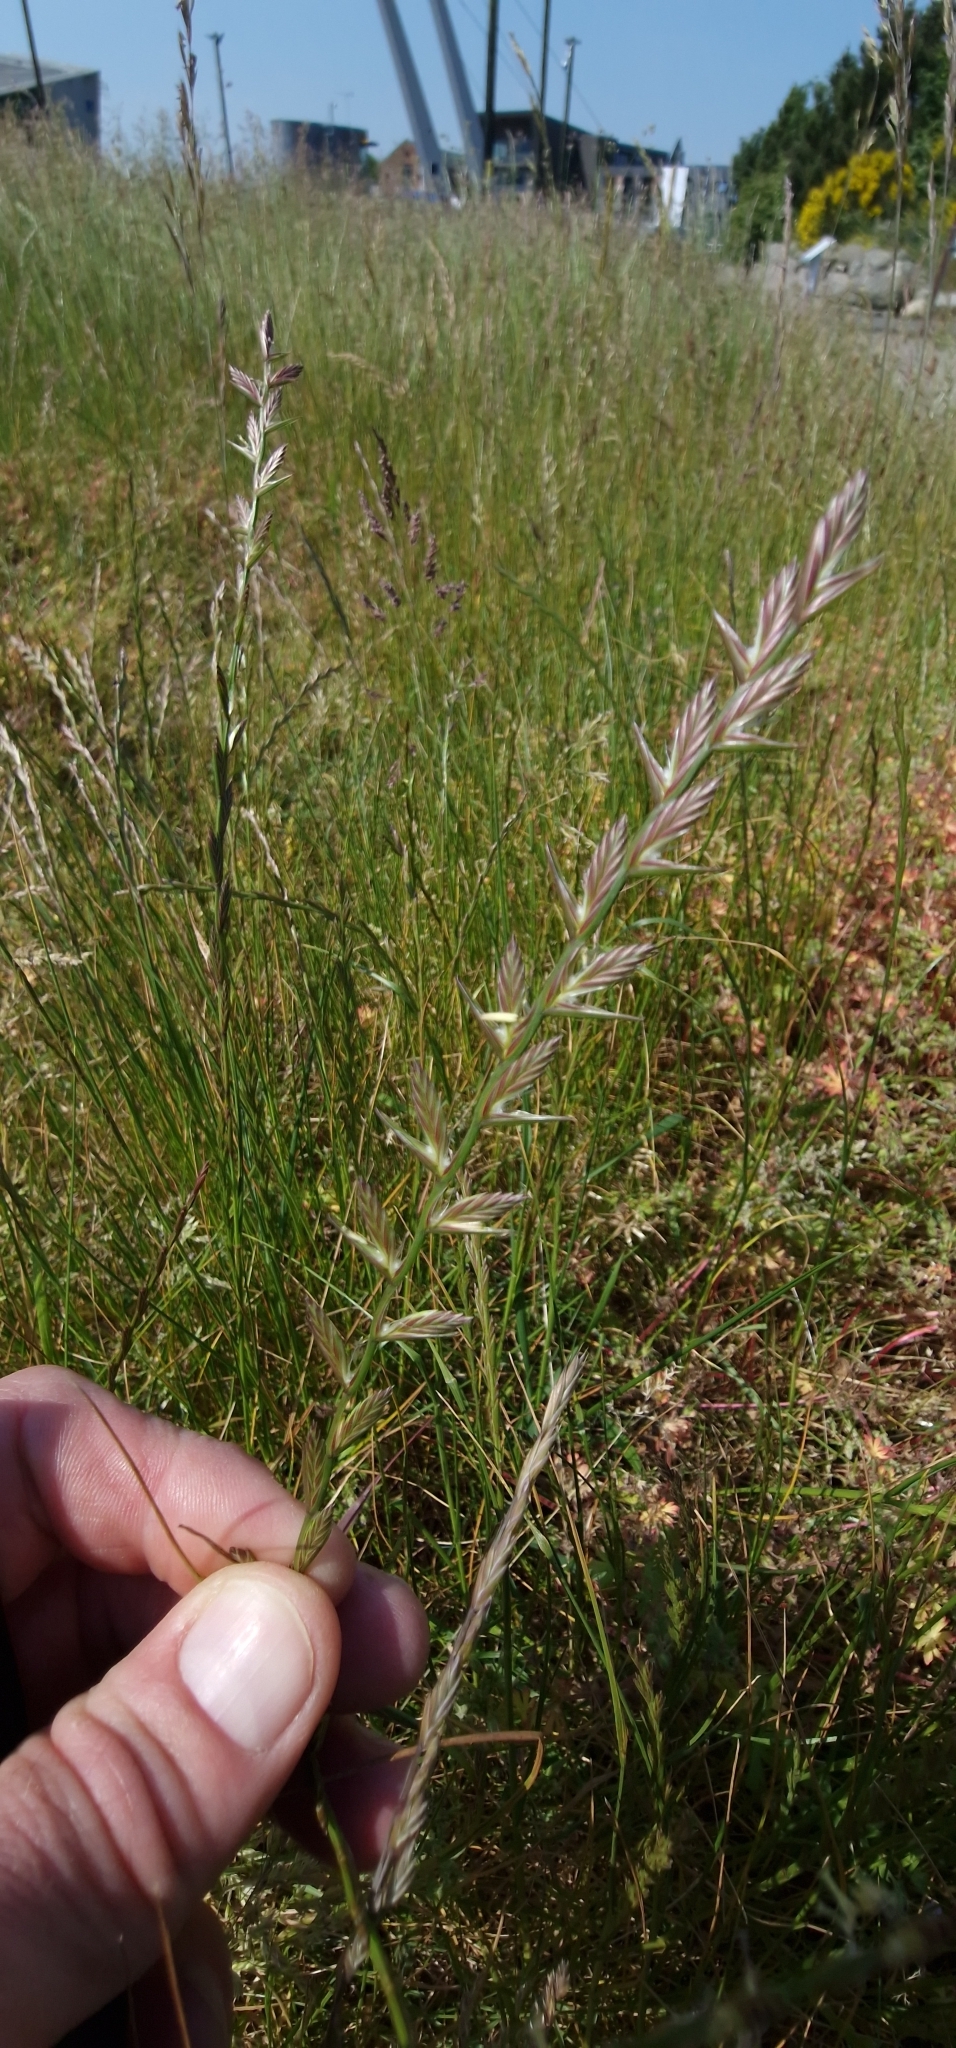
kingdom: Plantae
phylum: Tracheophyta
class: Liliopsida
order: Poales
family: Poaceae
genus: Lolium
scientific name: Lolium perenne
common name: Perennial ryegrass
